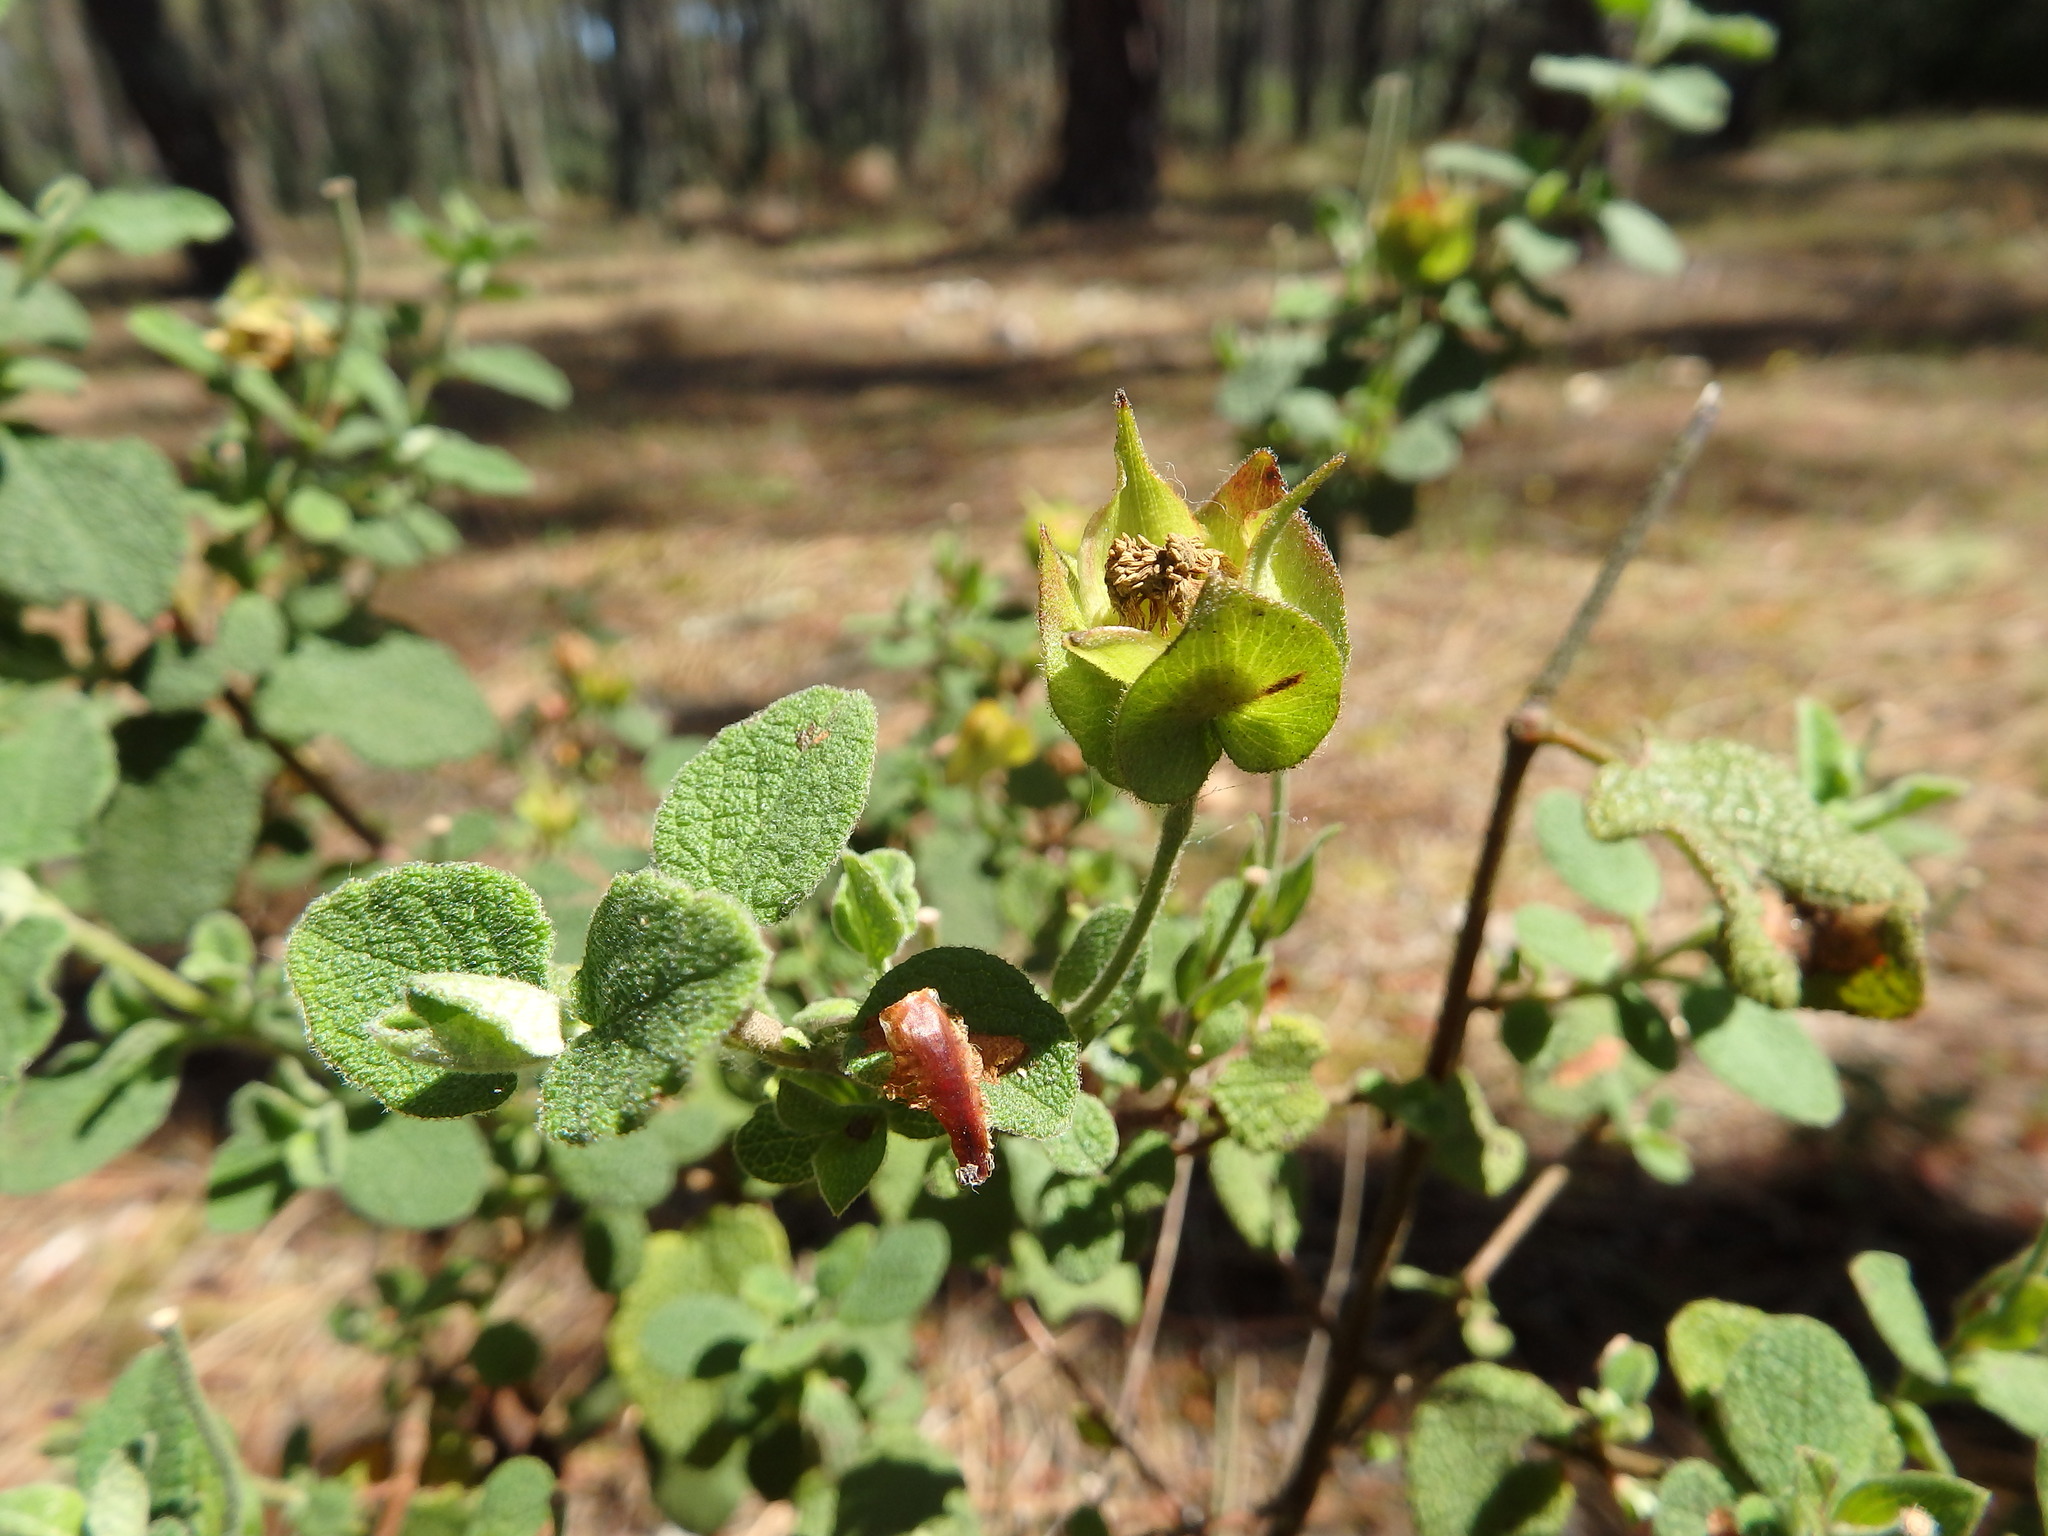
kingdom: Plantae
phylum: Tracheophyta
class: Magnoliopsida
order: Malvales
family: Cistaceae
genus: Cistus
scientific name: Cistus salviifolius
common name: Salvia cistus
